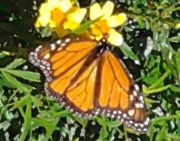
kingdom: Animalia
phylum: Arthropoda
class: Insecta
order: Lepidoptera
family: Nymphalidae
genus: Danaus
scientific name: Danaus plexippus
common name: Monarch
